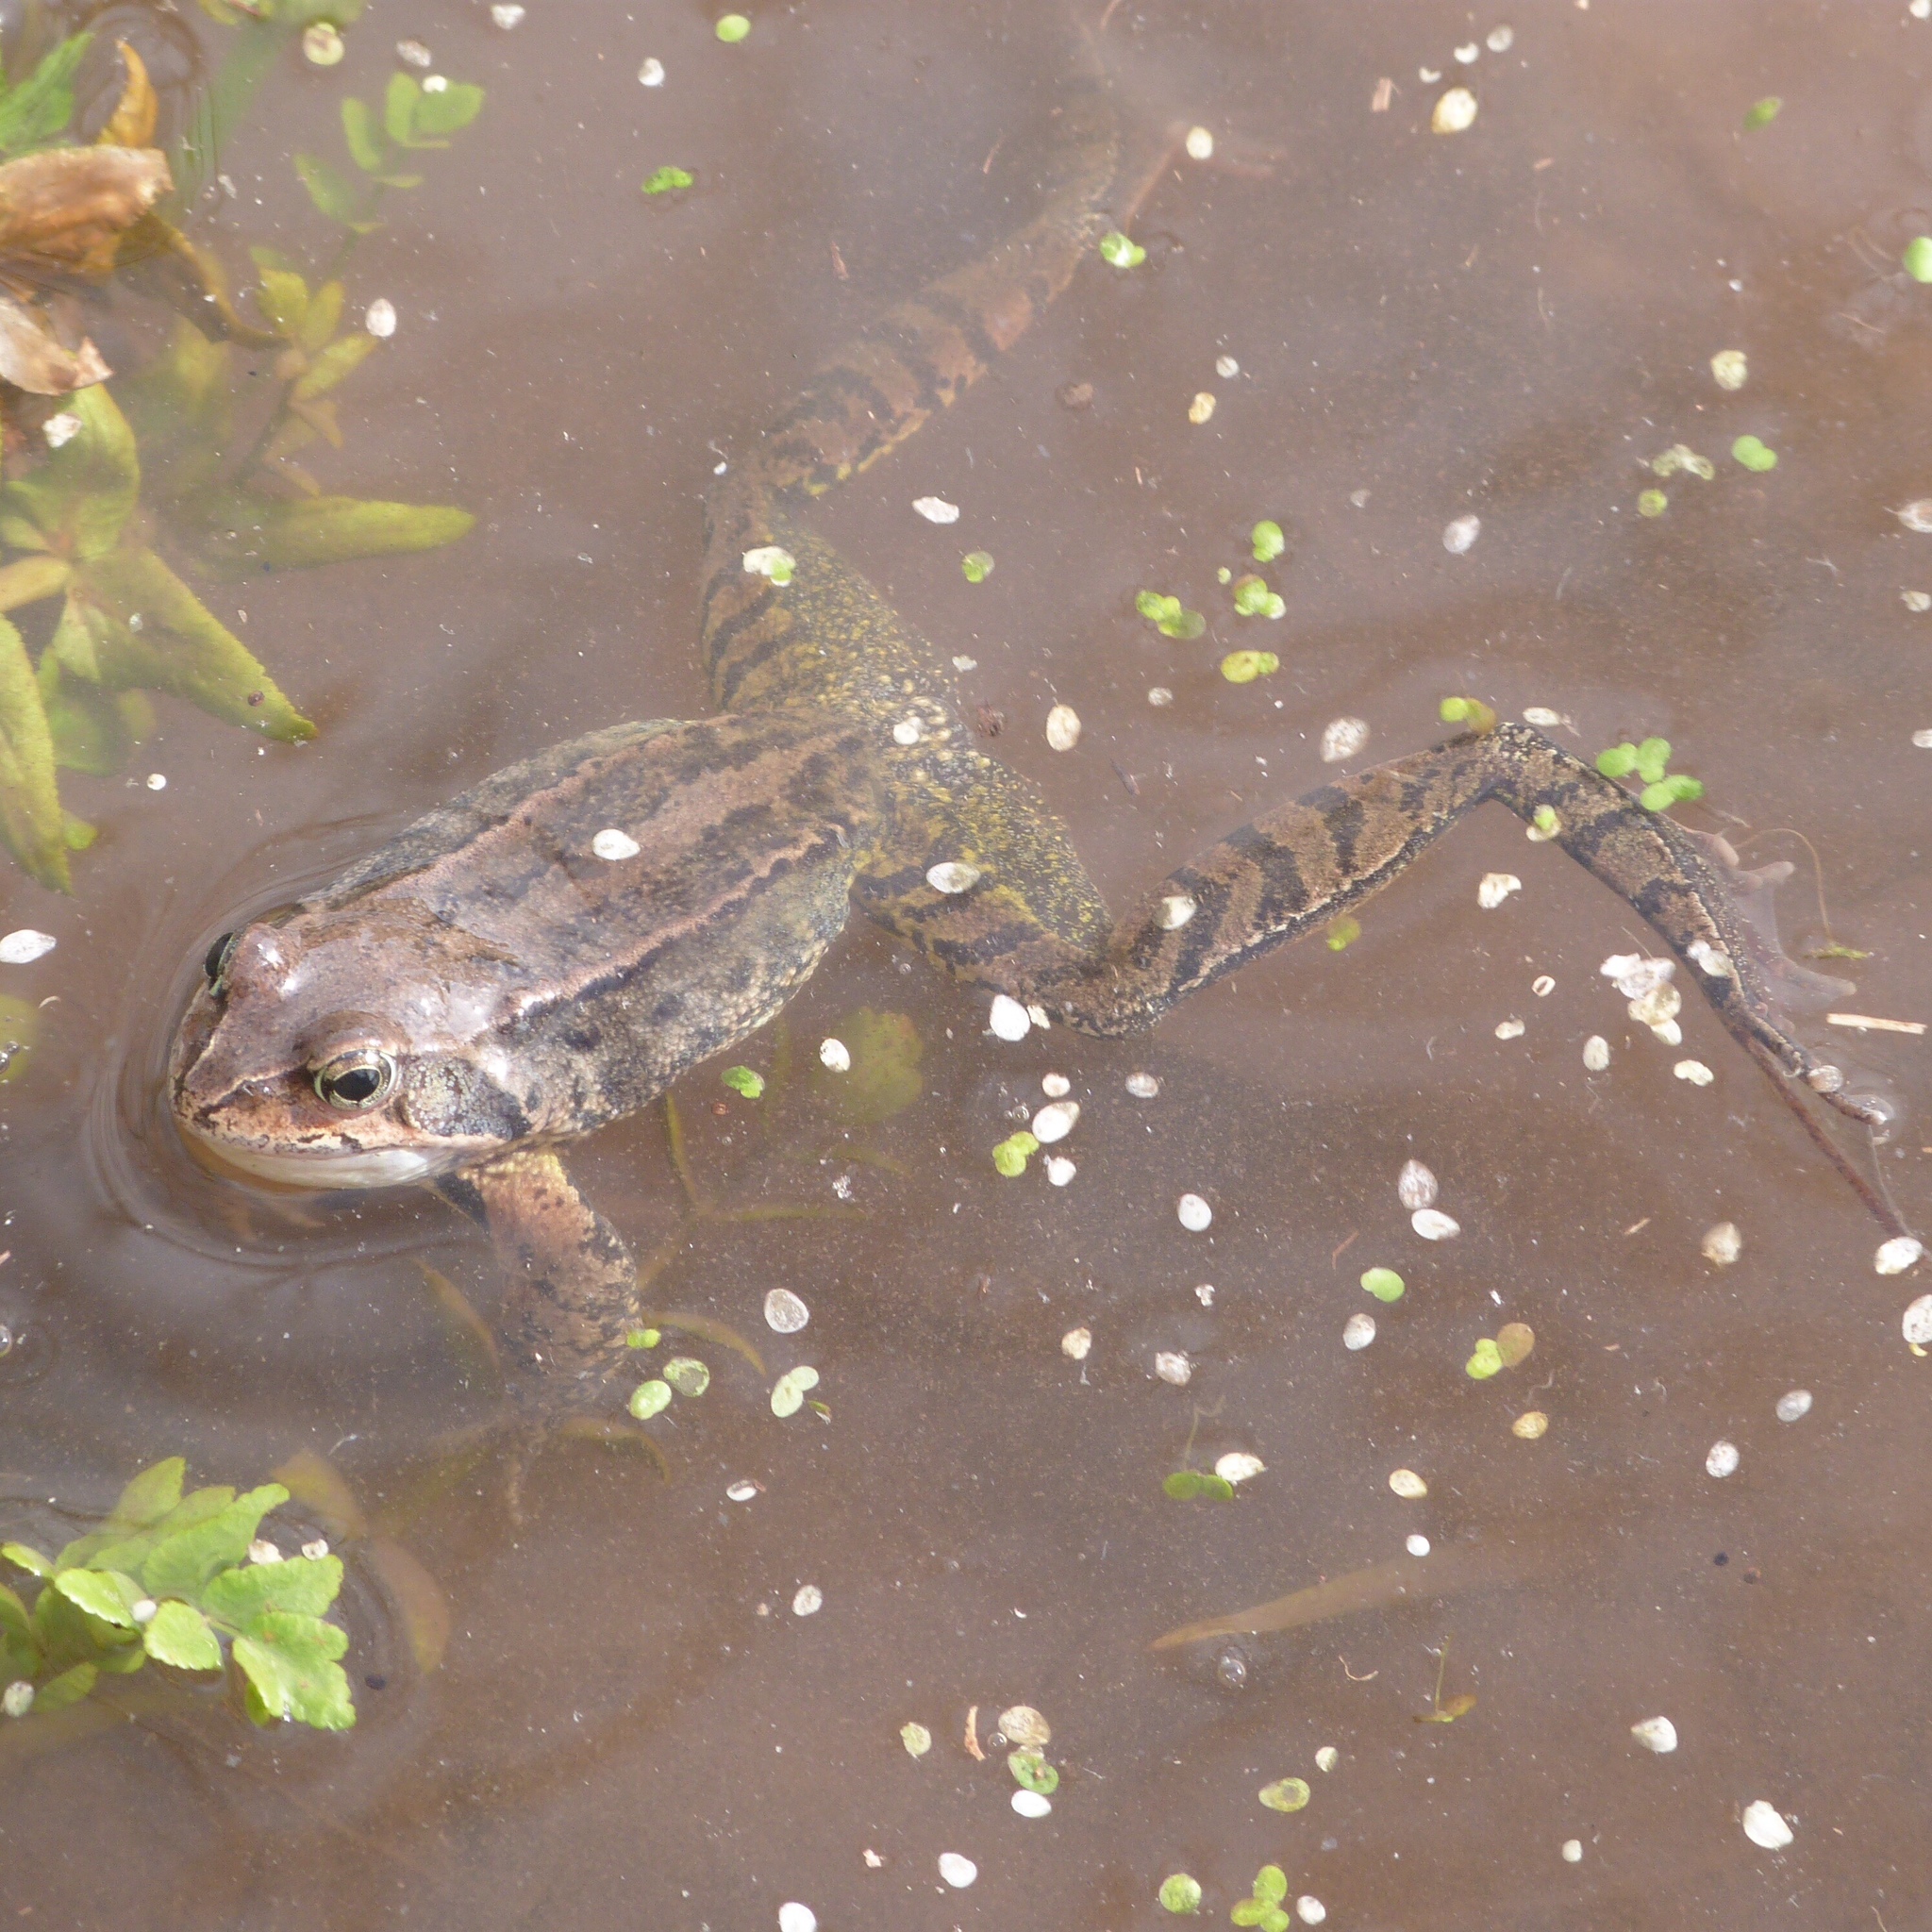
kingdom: Animalia
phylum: Chordata
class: Amphibia
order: Anura
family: Ranidae
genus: Rana
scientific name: Rana temporaria
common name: Common frog
